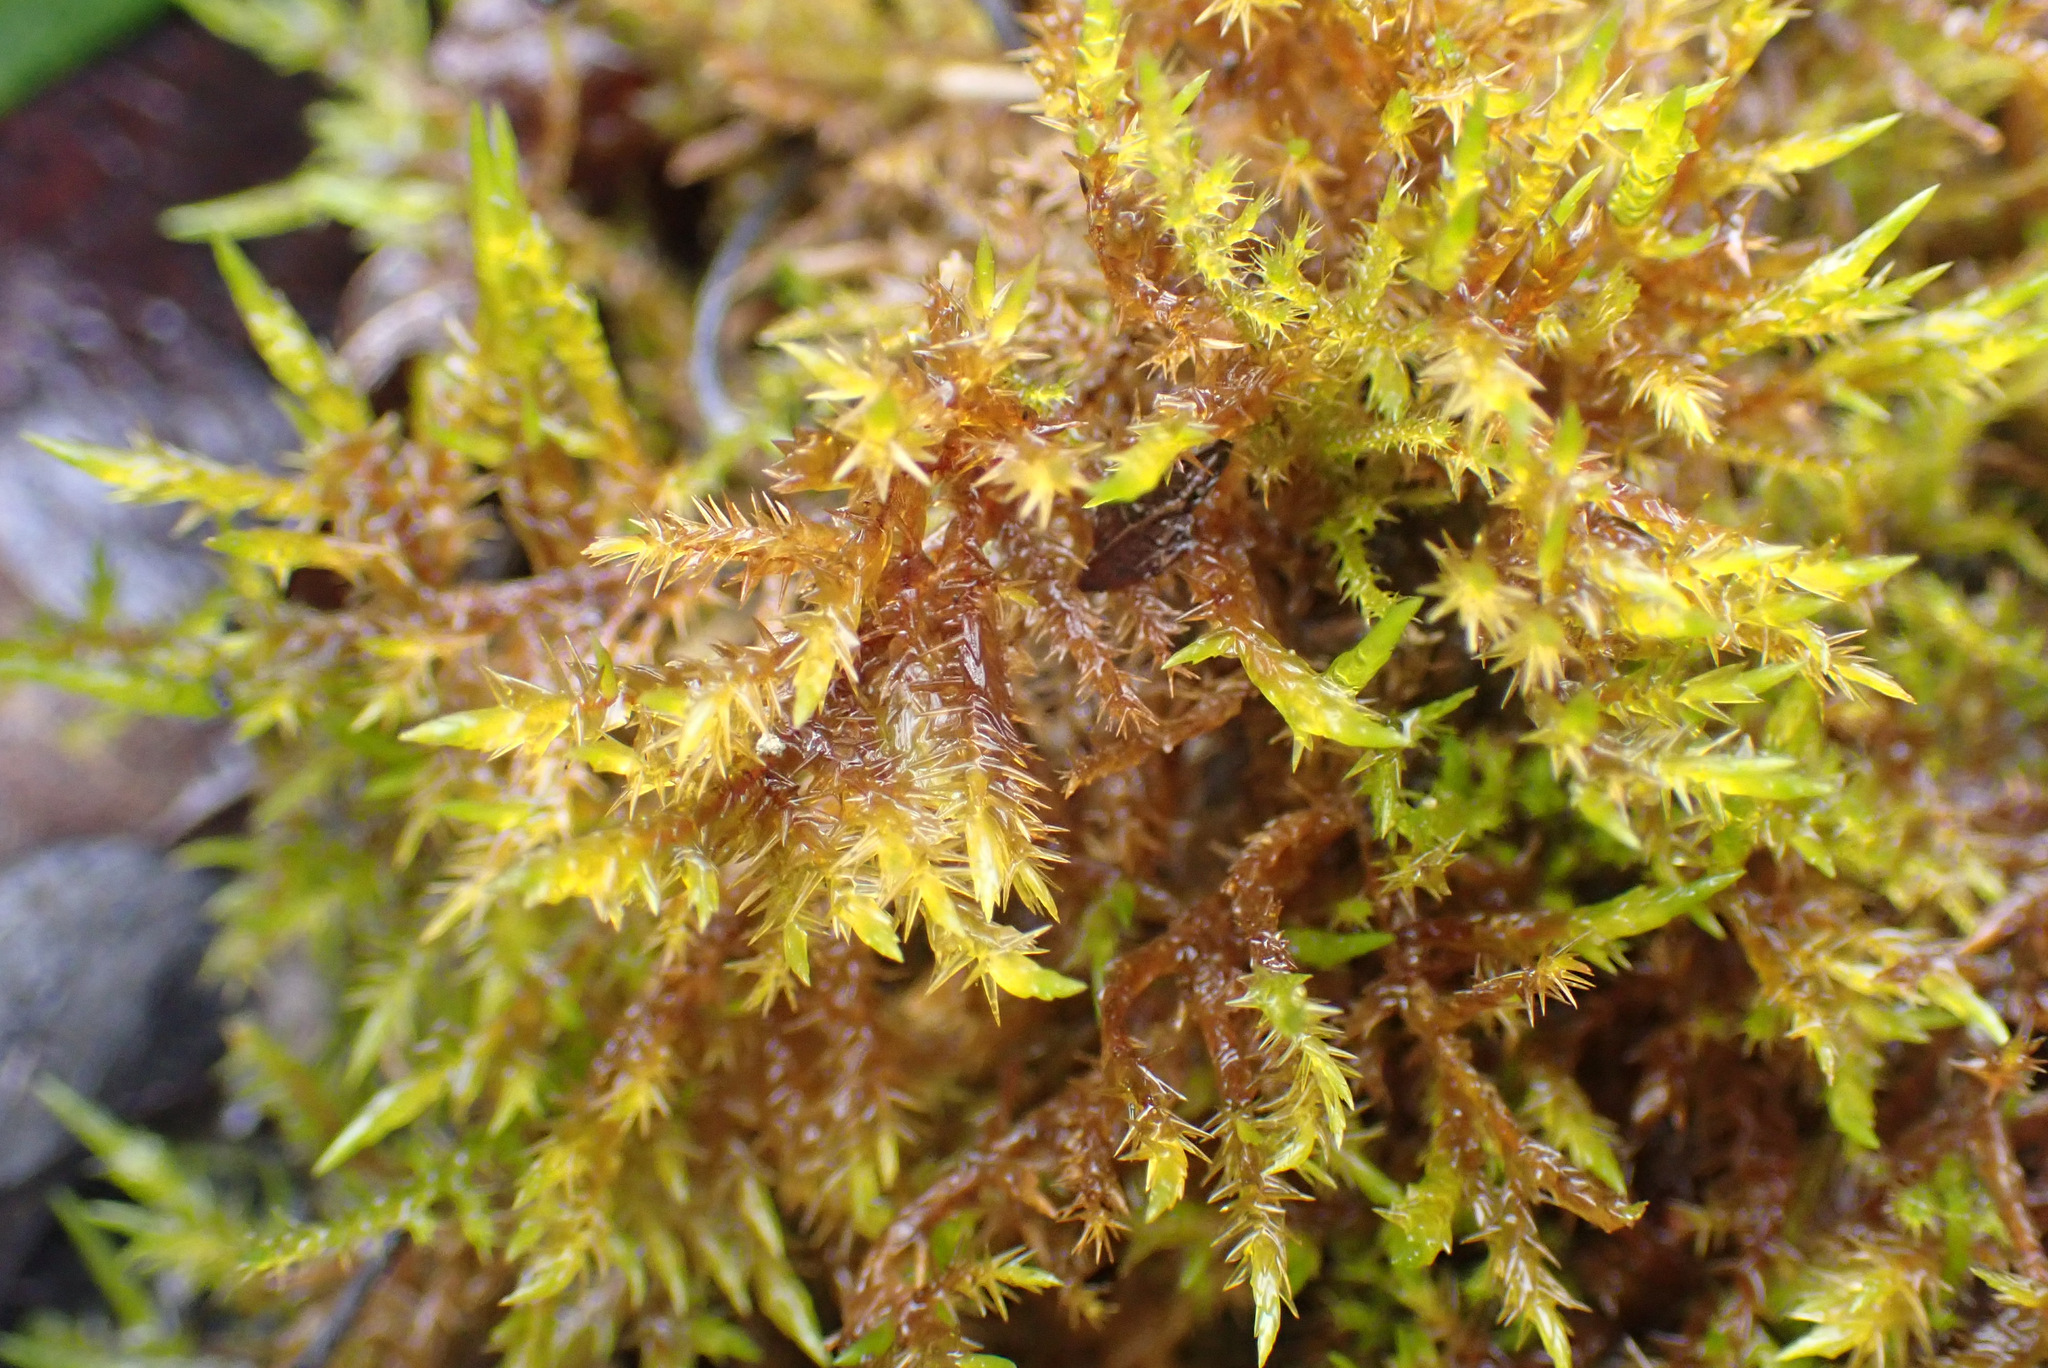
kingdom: Plantae
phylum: Bryophyta
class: Bryopsida
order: Hypnales
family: Pylaisiaceae
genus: Calliergonella
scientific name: Calliergonella cuspidata
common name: Common large wetland moss
